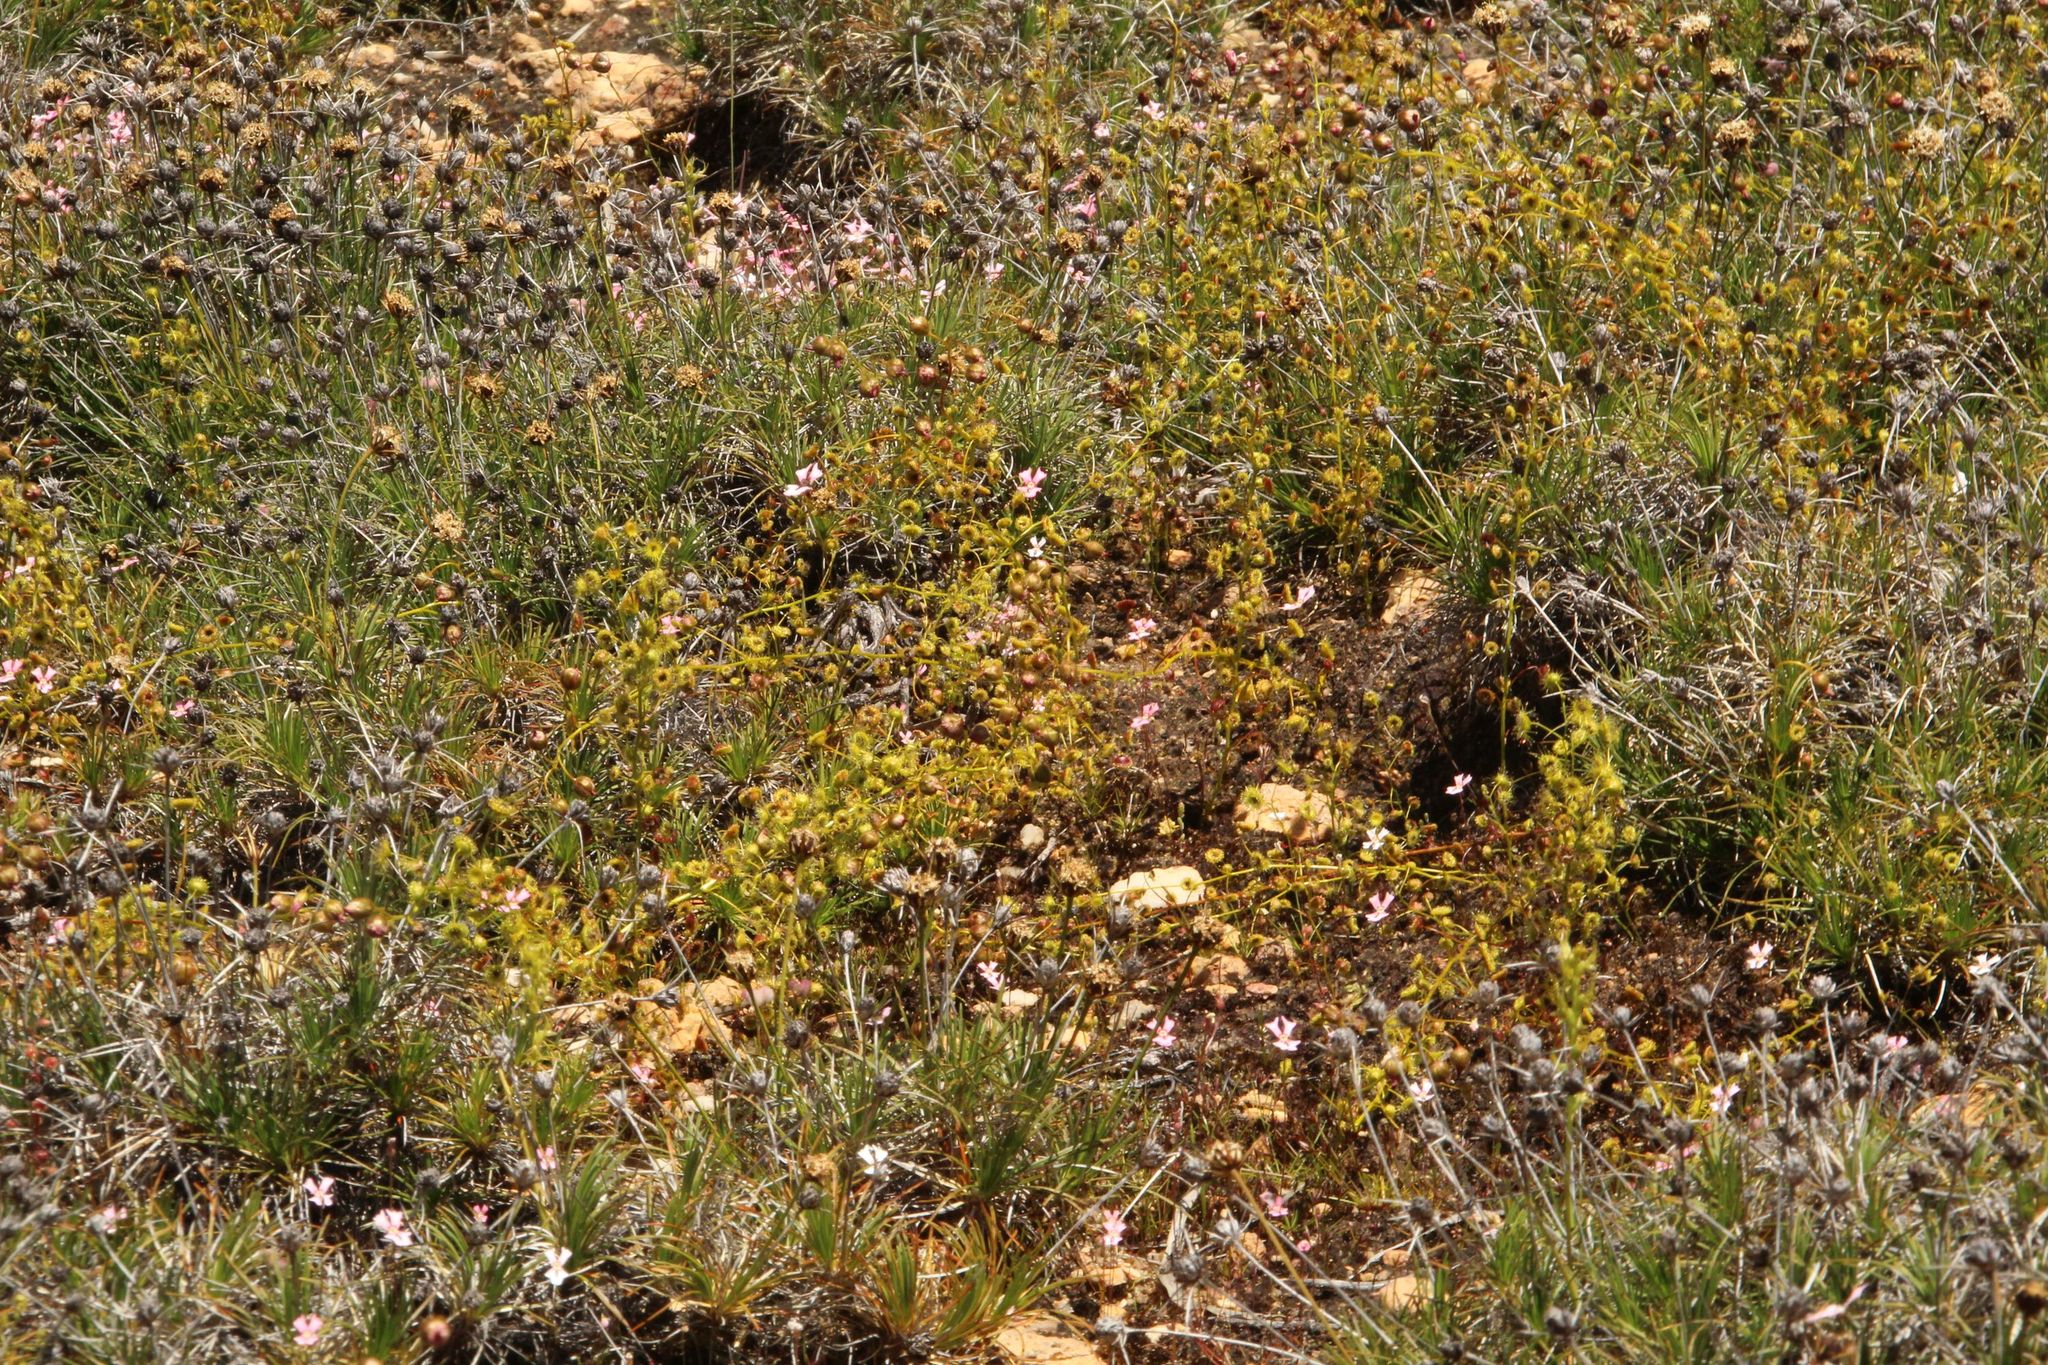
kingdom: Plantae
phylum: Tracheophyta
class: Magnoliopsida
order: Caryophyllales
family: Droseraceae
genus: Drosera
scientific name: Drosera stricticaulis
